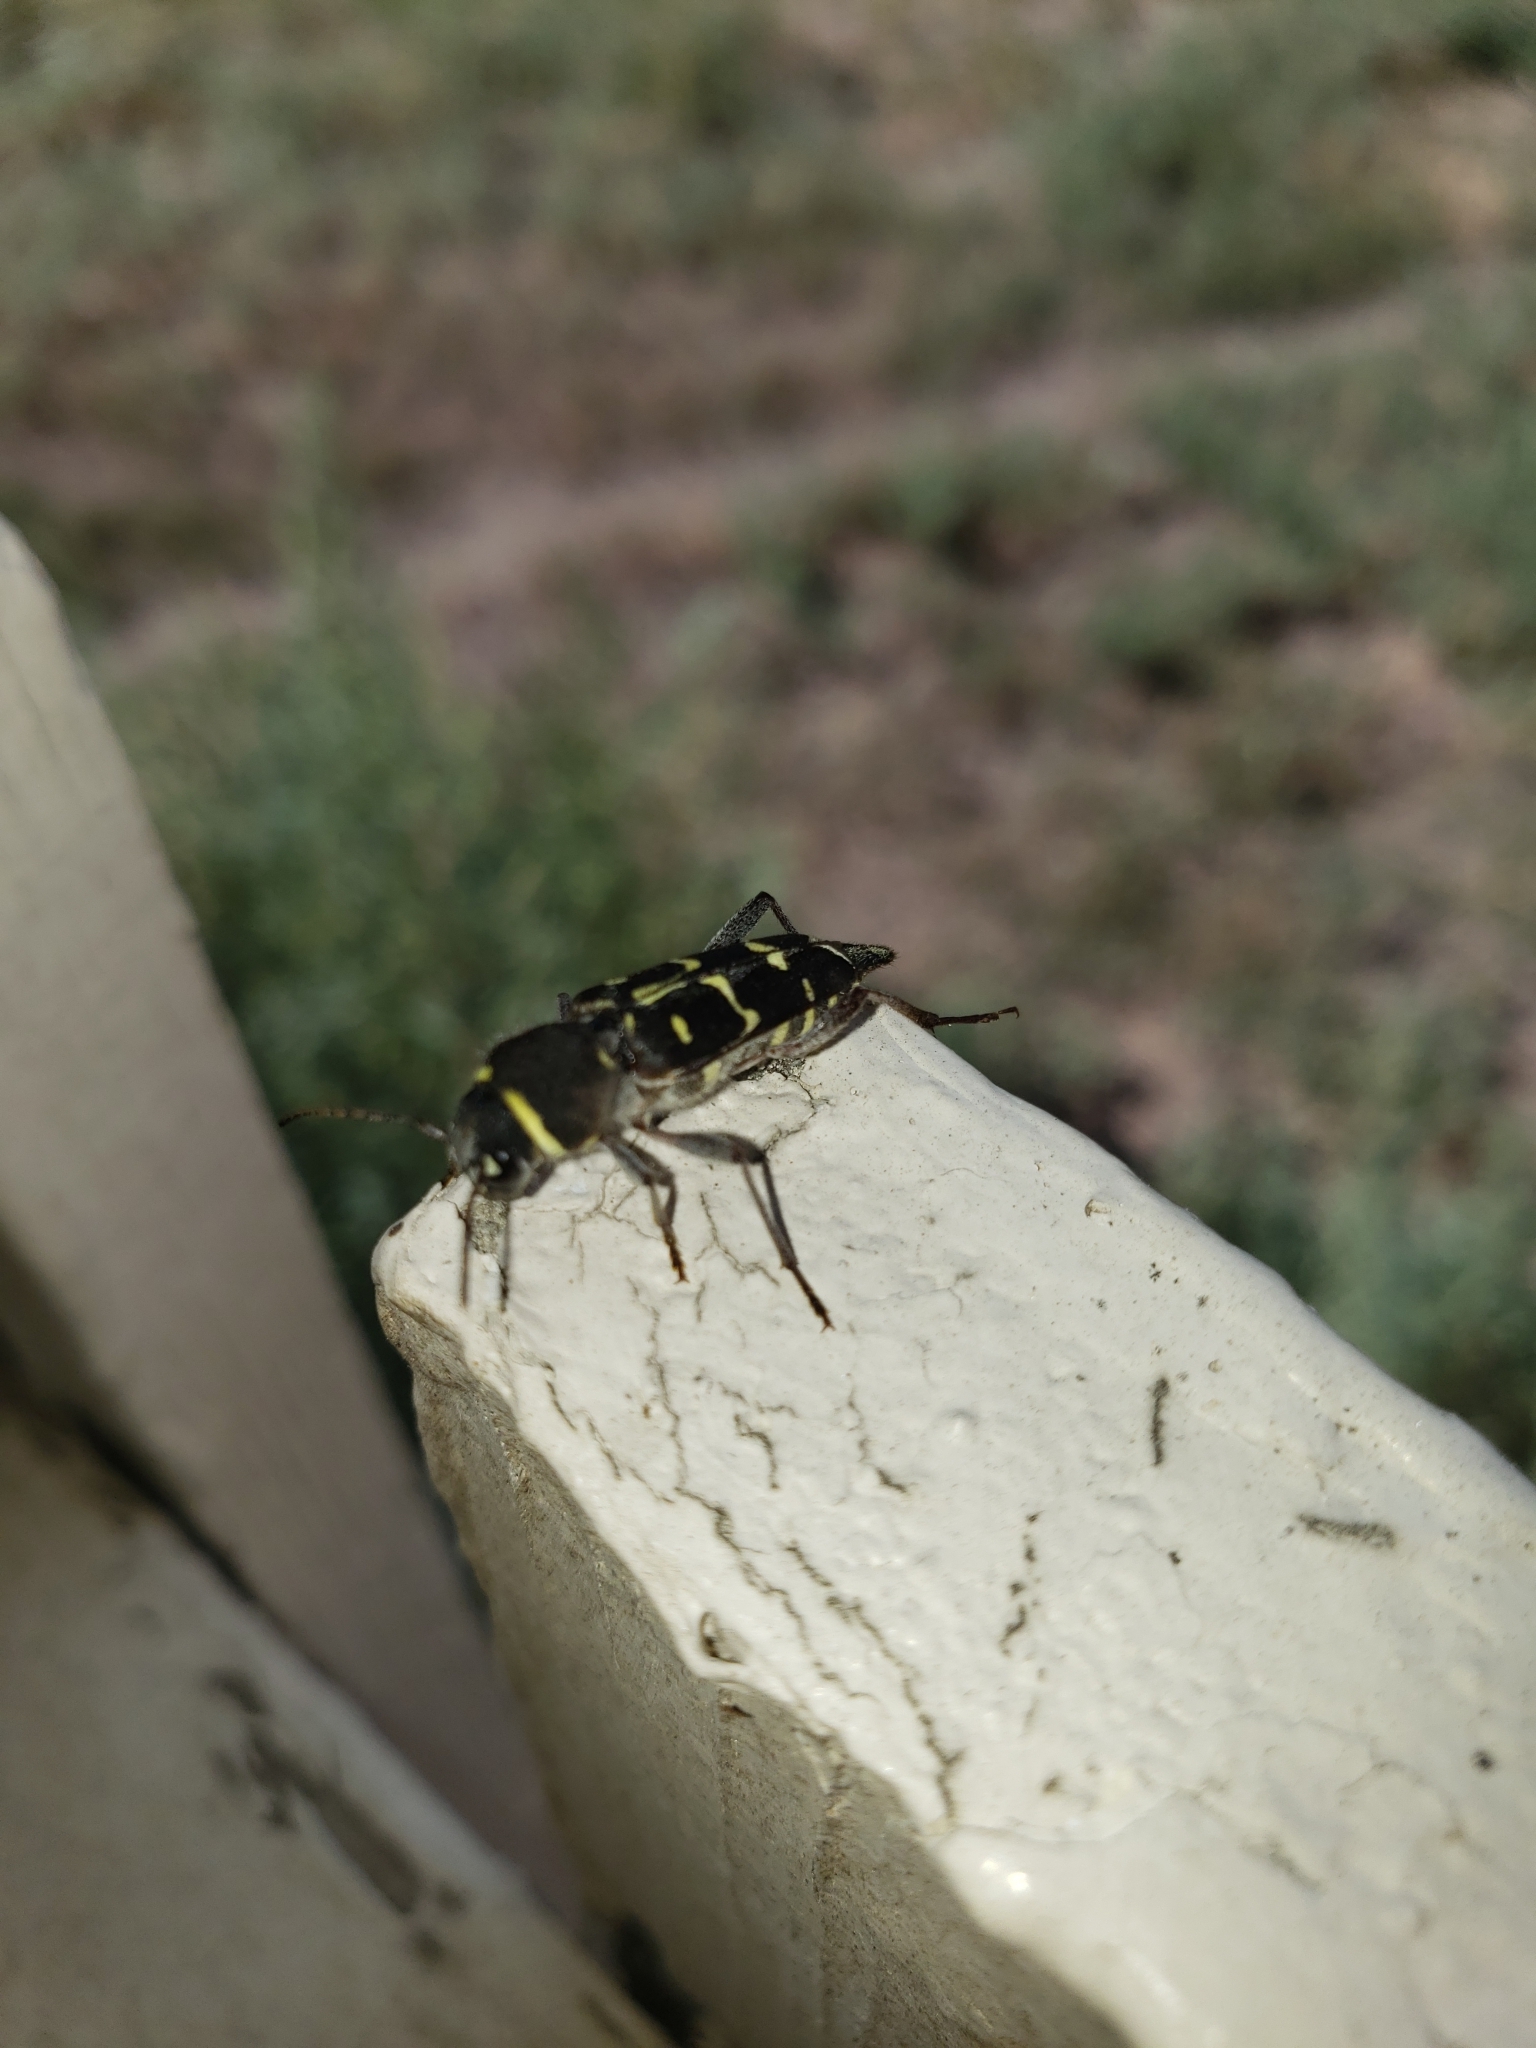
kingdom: Animalia
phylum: Arthropoda
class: Insecta
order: Coleoptera
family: Cerambycidae
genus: Xylotrechus
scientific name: Xylotrechus undulatus
